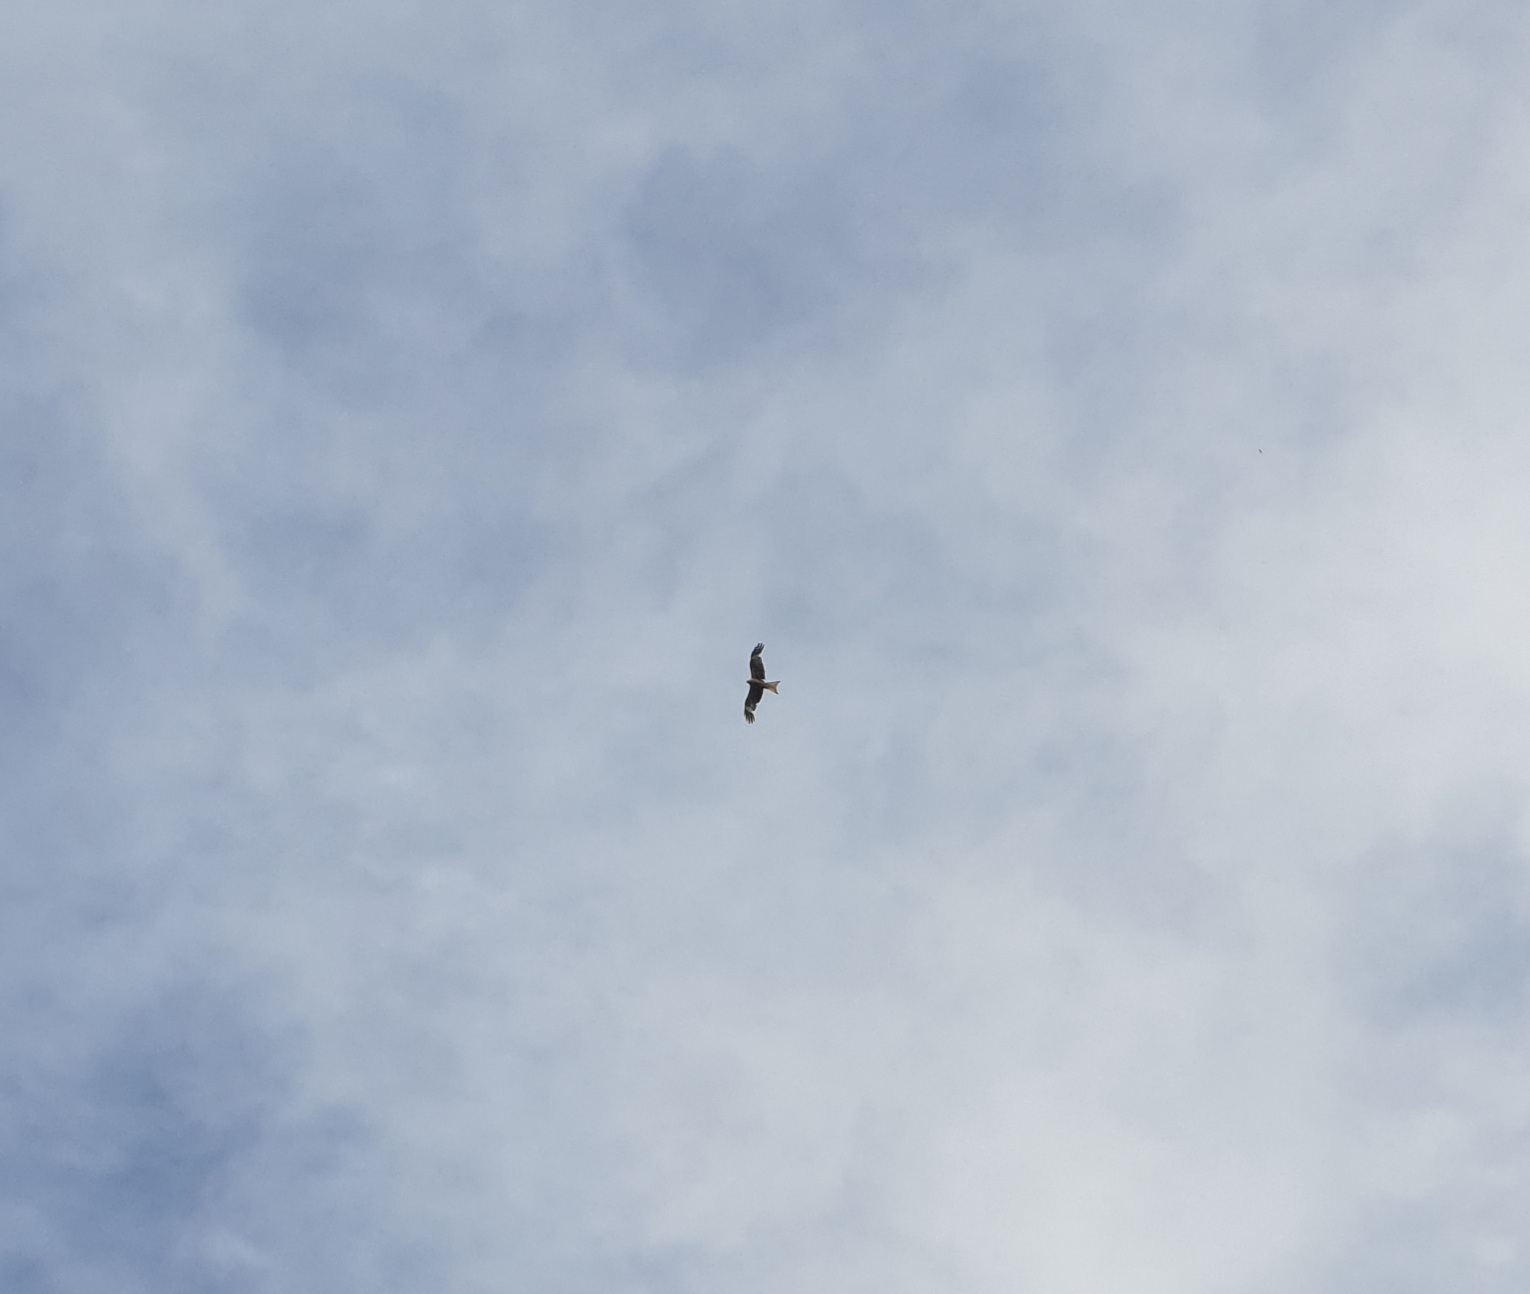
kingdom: Animalia
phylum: Chordata
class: Aves
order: Accipitriformes
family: Accipitridae
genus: Milvus
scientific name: Milvus milvus
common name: Red kite
